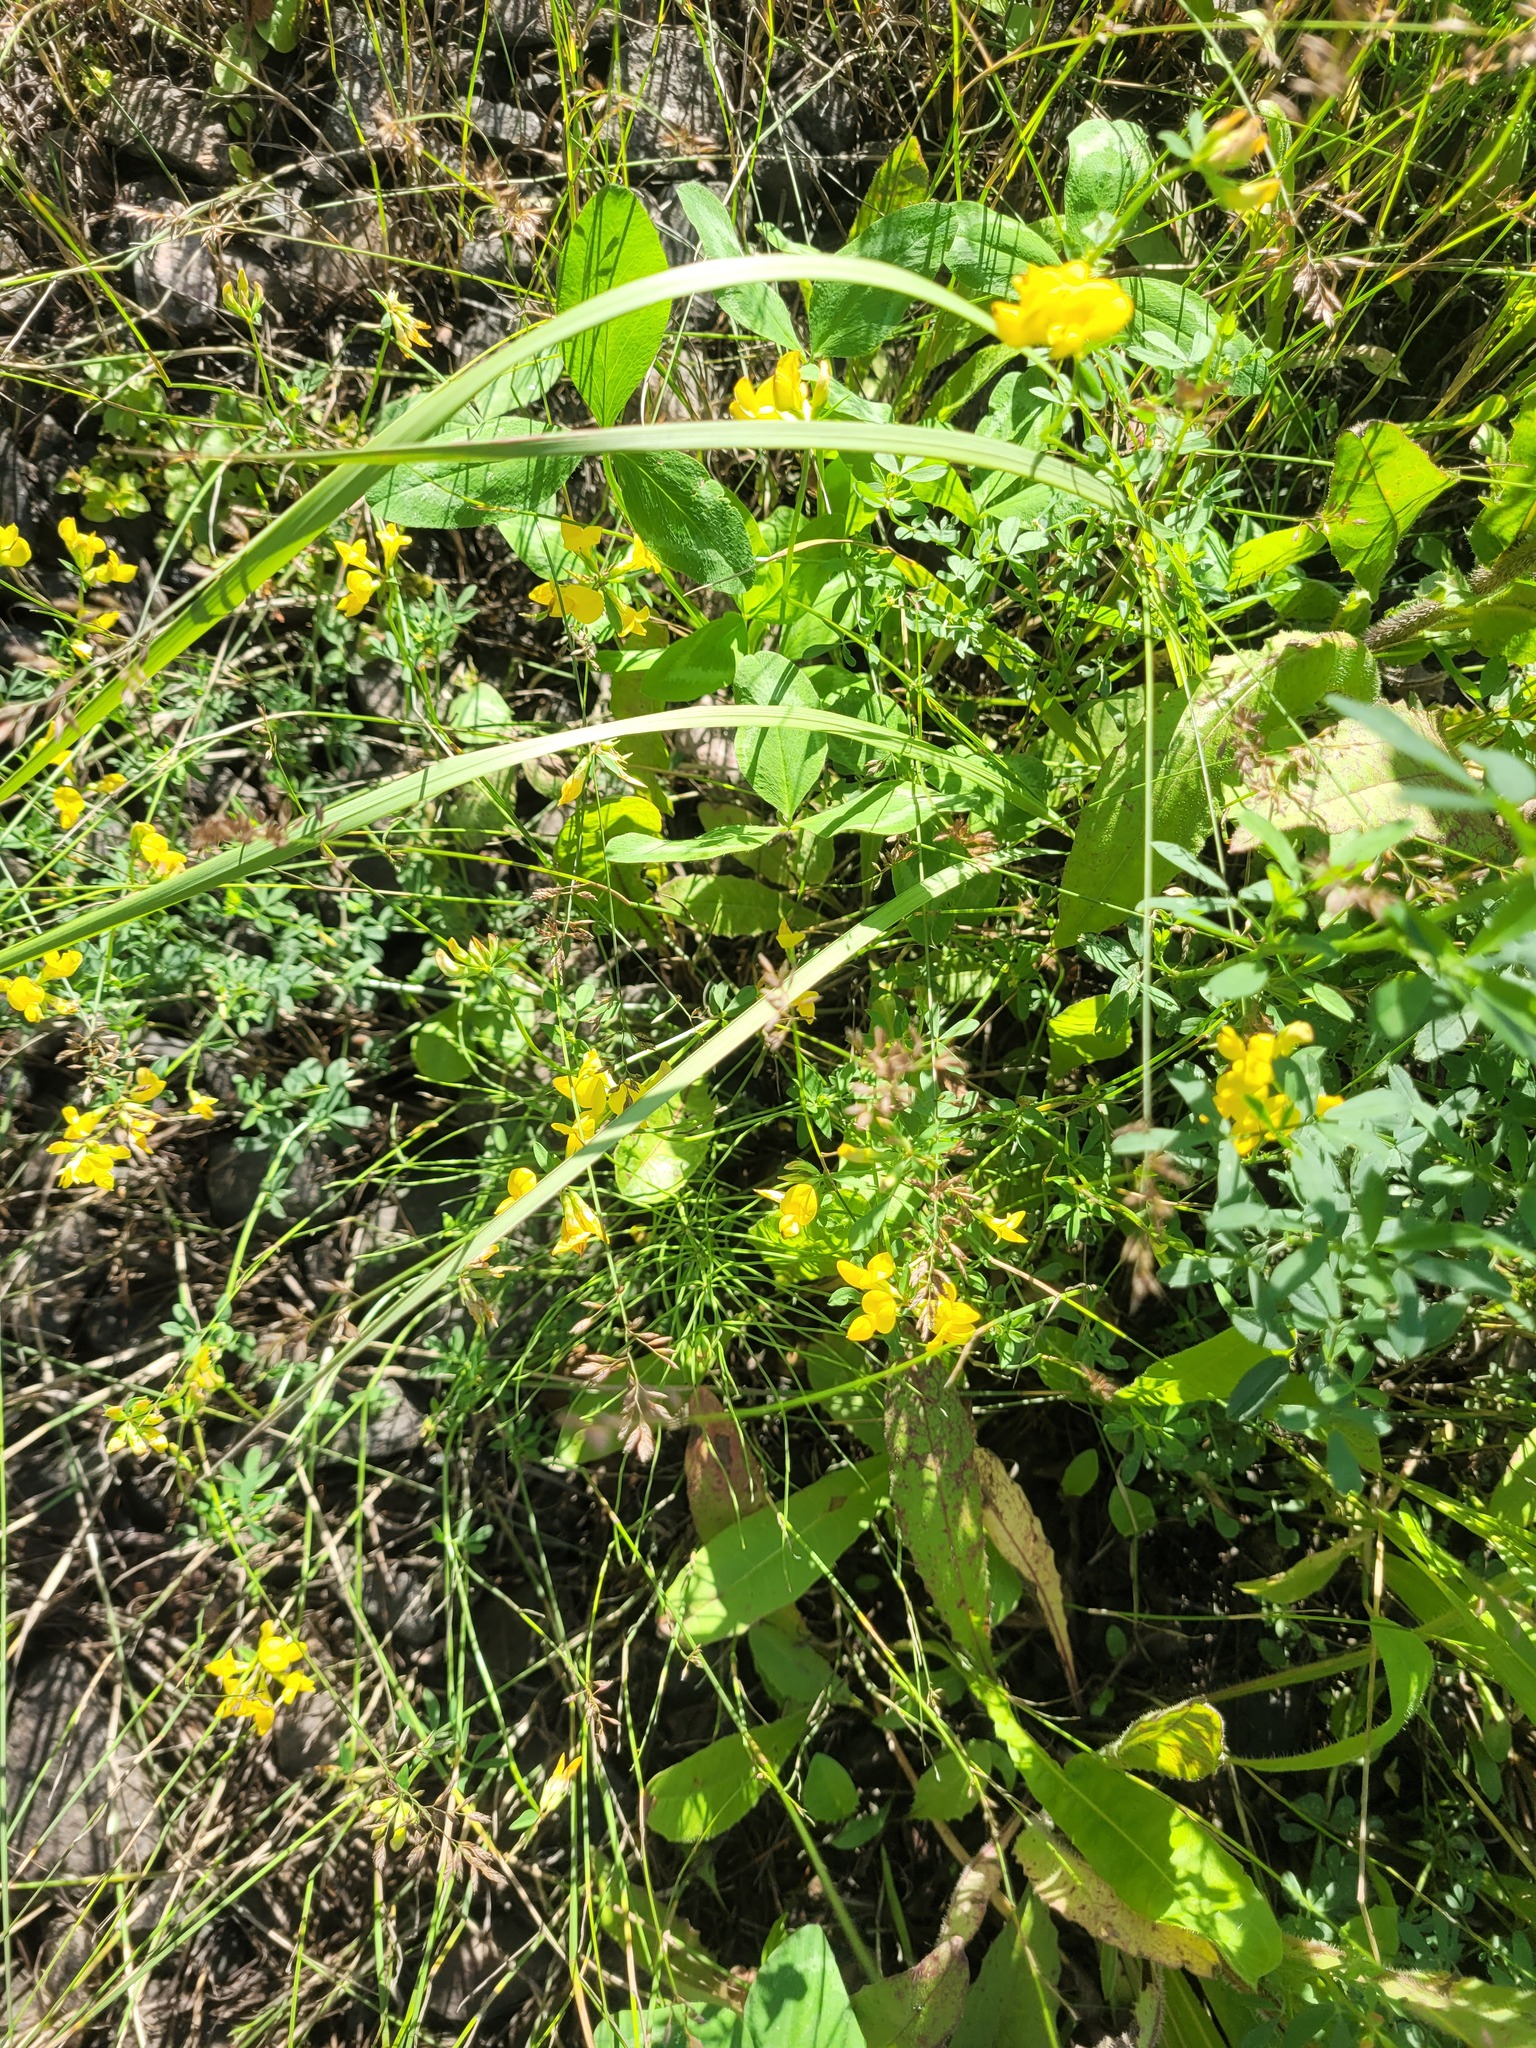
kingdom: Plantae
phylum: Tracheophyta
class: Magnoliopsida
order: Fabales
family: Fabaceae
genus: Lotus
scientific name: Lotus corniculatus
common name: Common bird's-foot-trefoil
